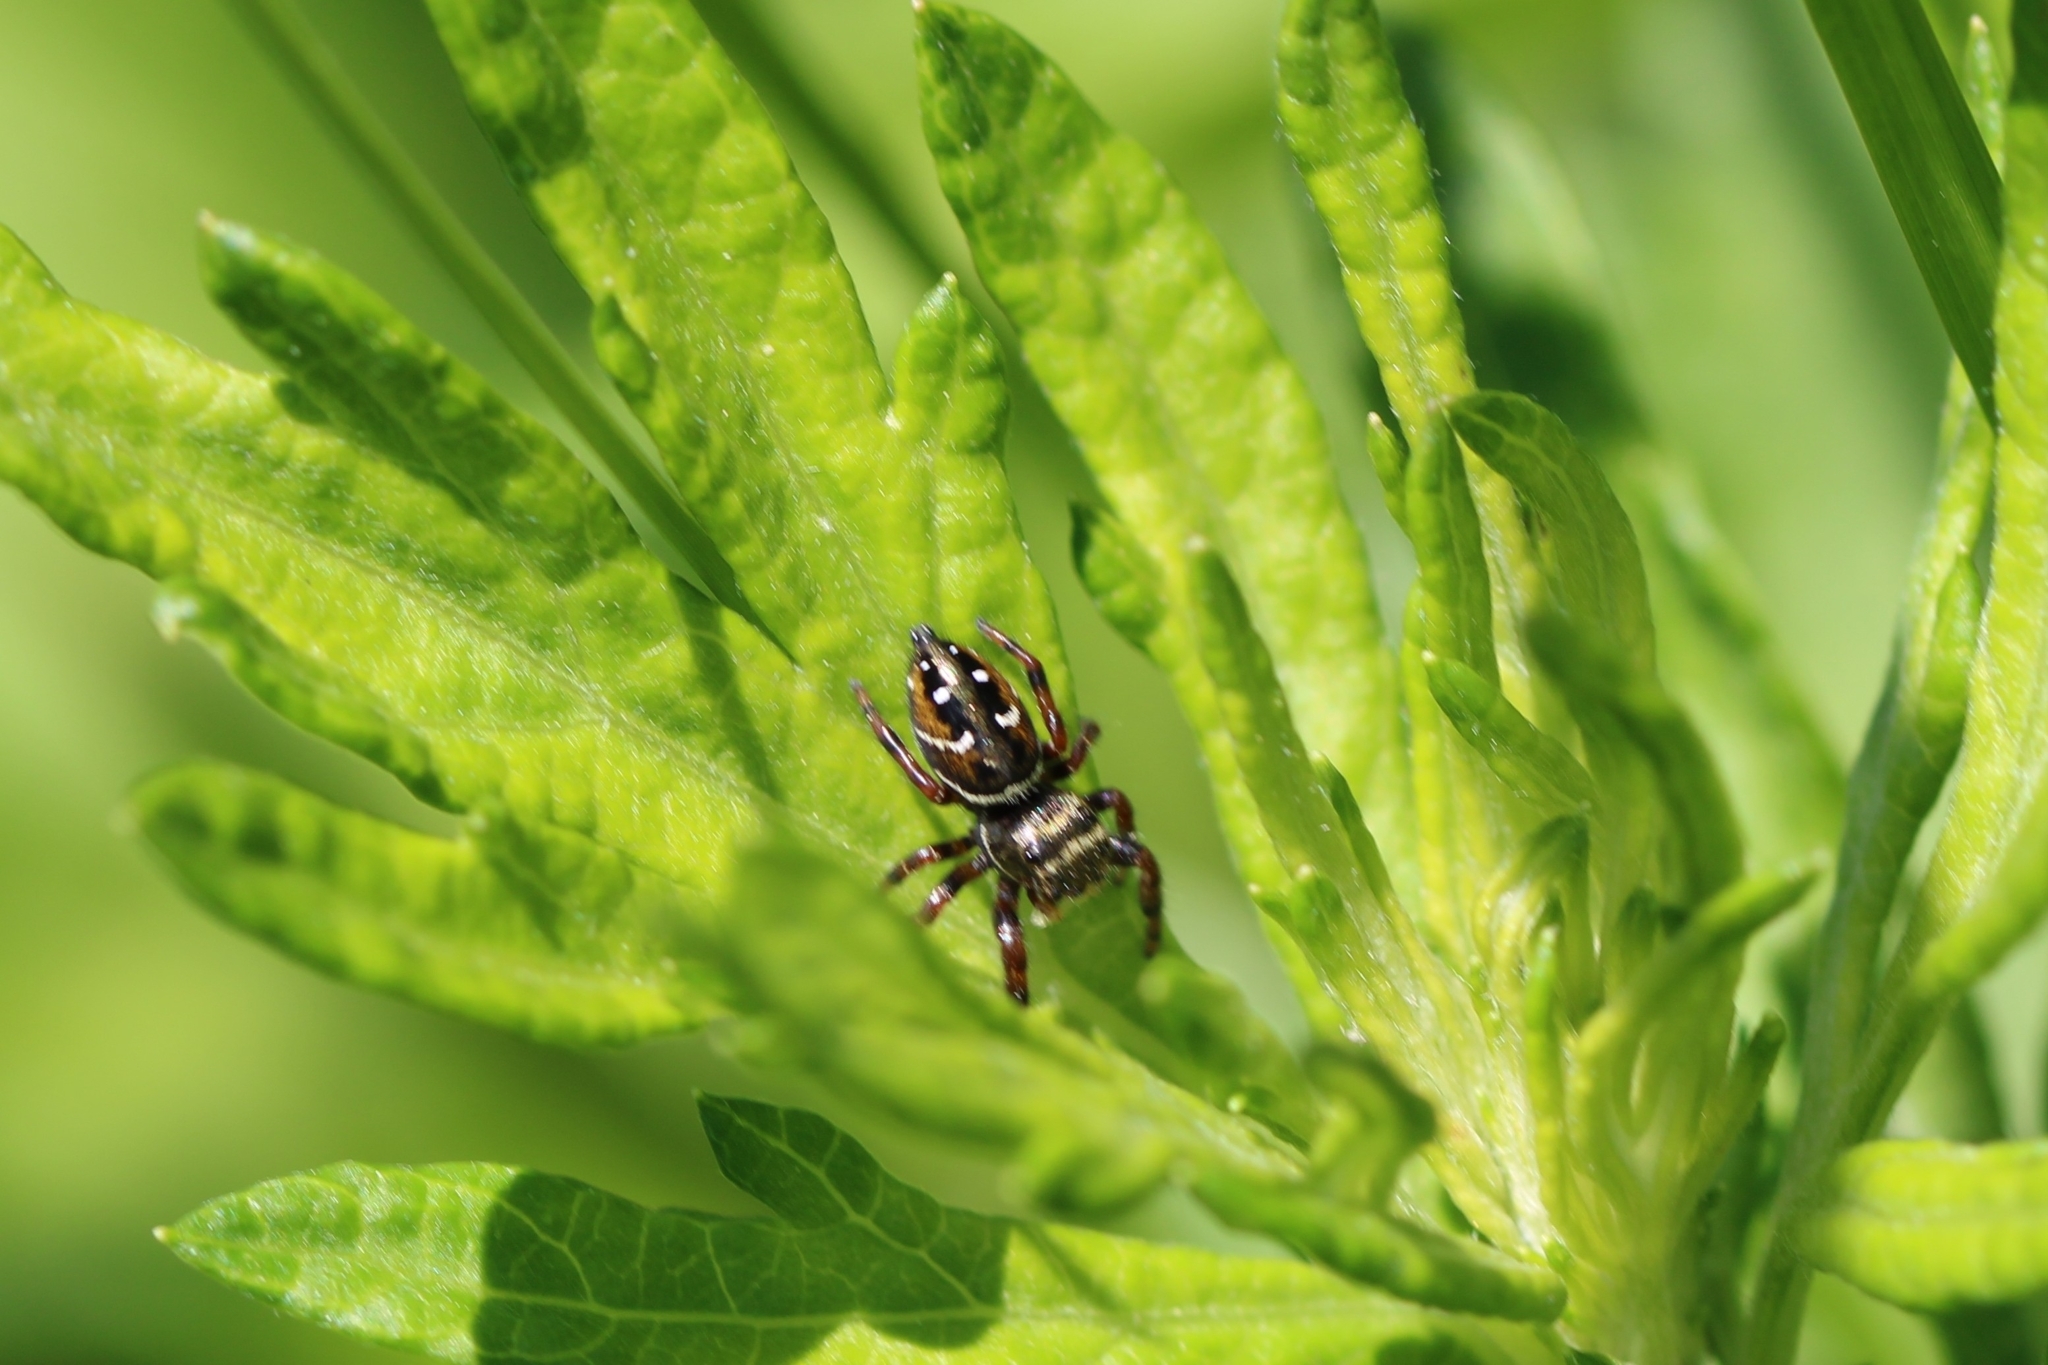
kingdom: Animalia
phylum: Arthropoda
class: Arachnida
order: Araneae
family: Salticidae
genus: Phidippus
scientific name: Phidippus clarus
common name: Brilliant jumping spider
